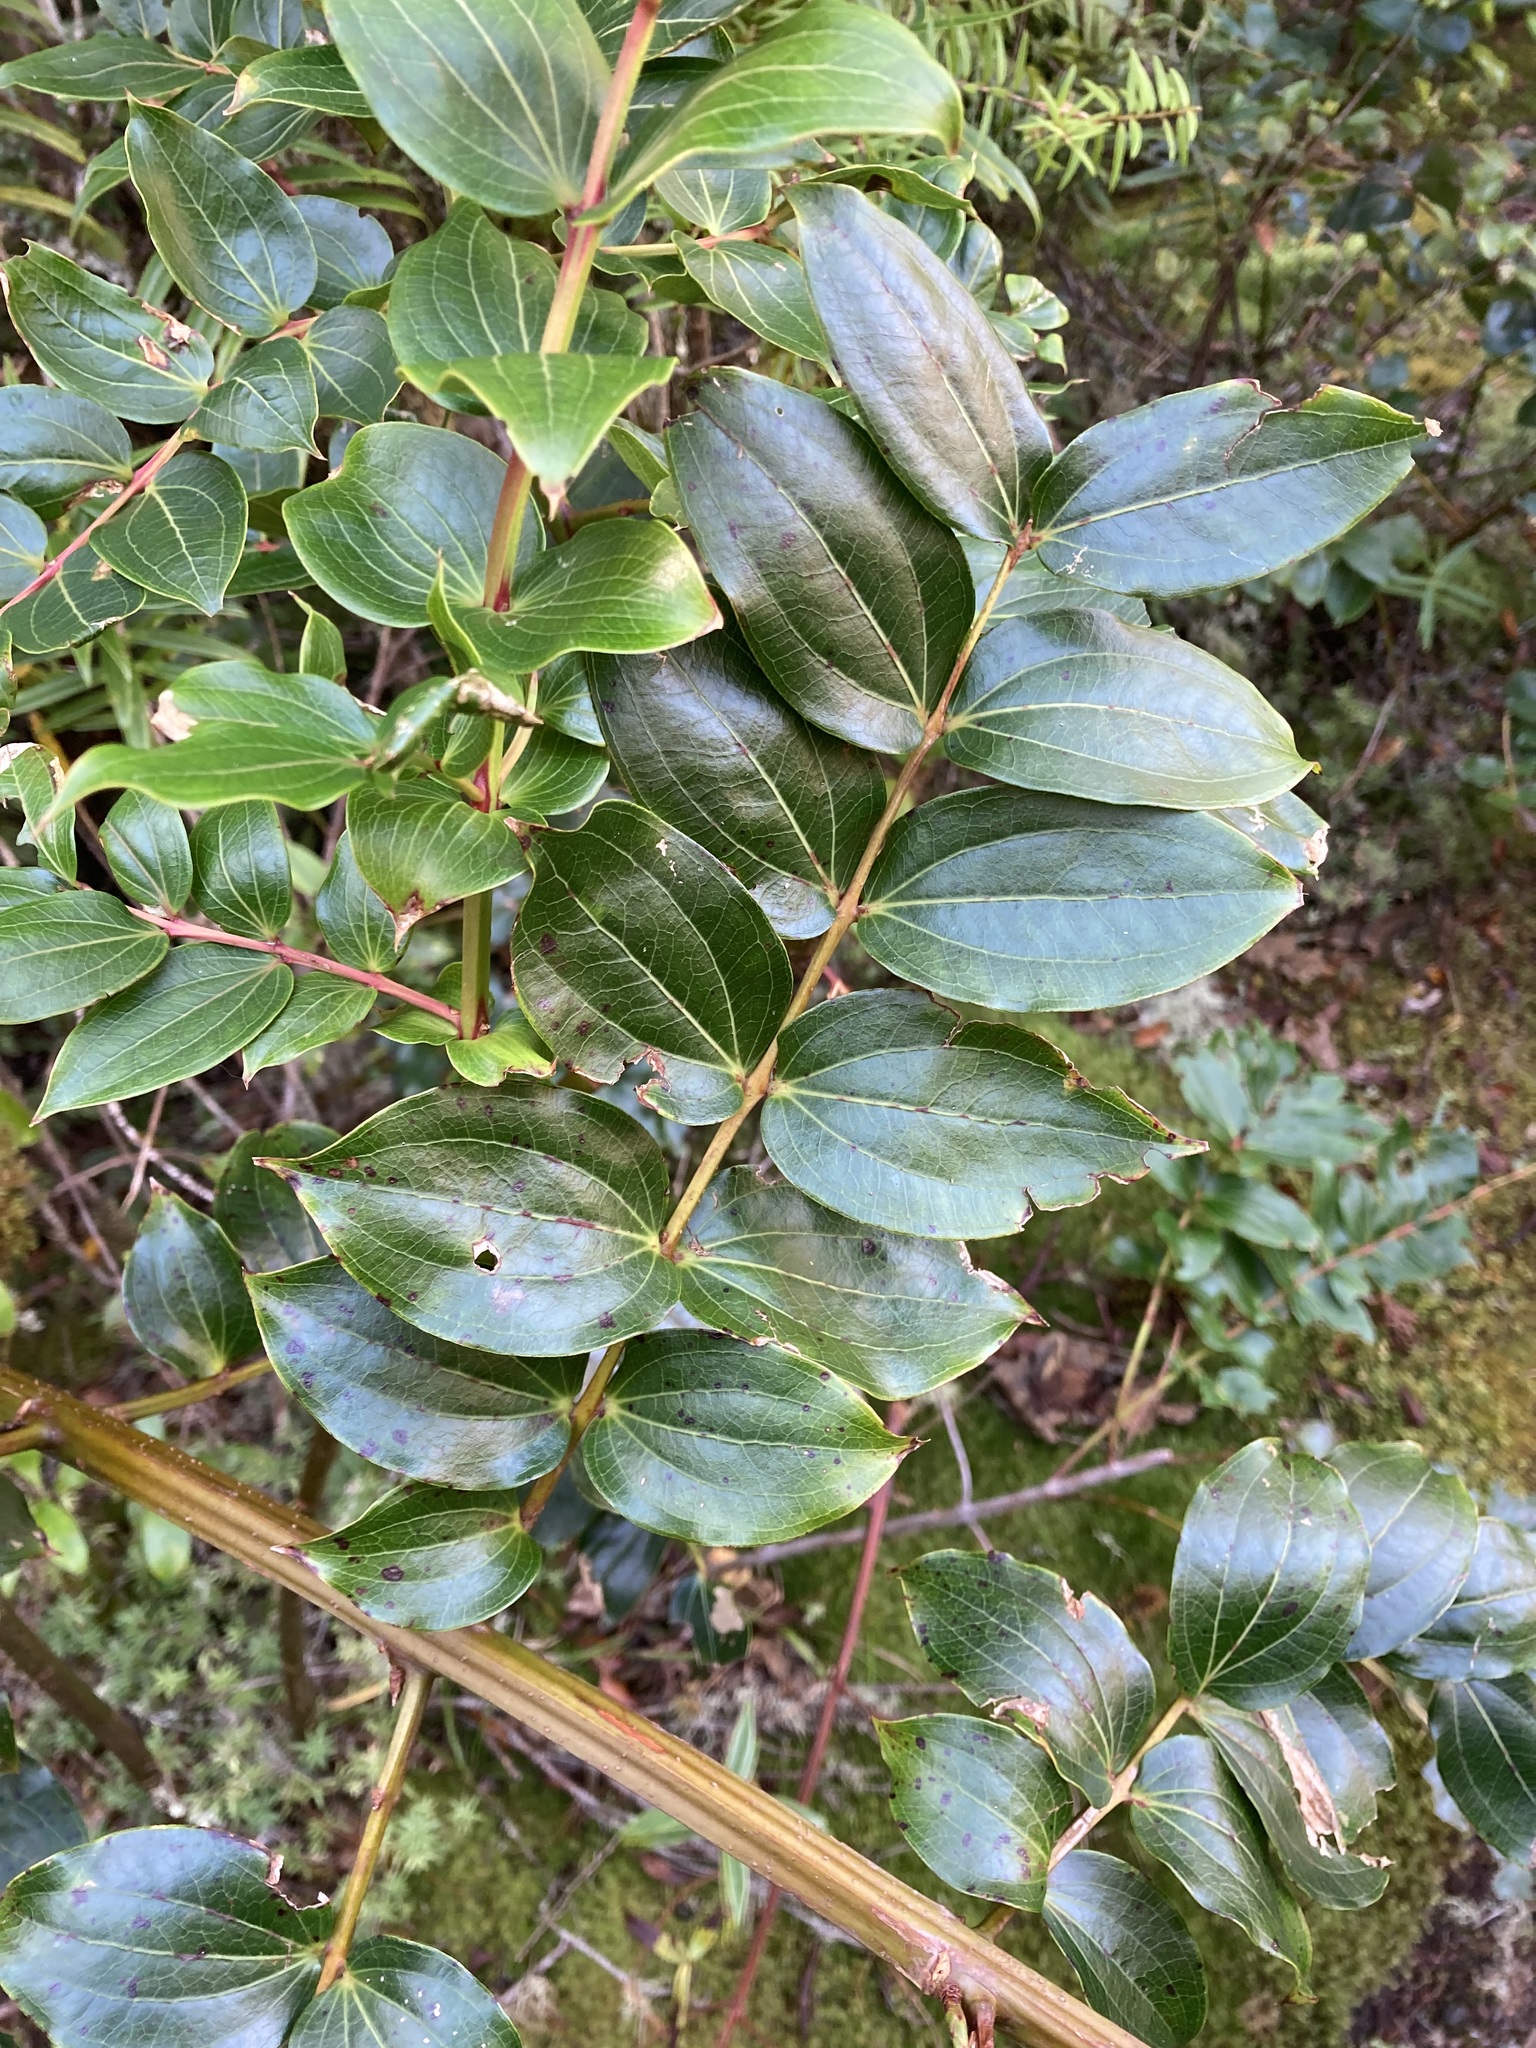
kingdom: Plantae
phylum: Tracheophyta
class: Magnoliopsida
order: Cucurbitales
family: Coriariaceae
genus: Coriaria
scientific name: Coriaria arborea
